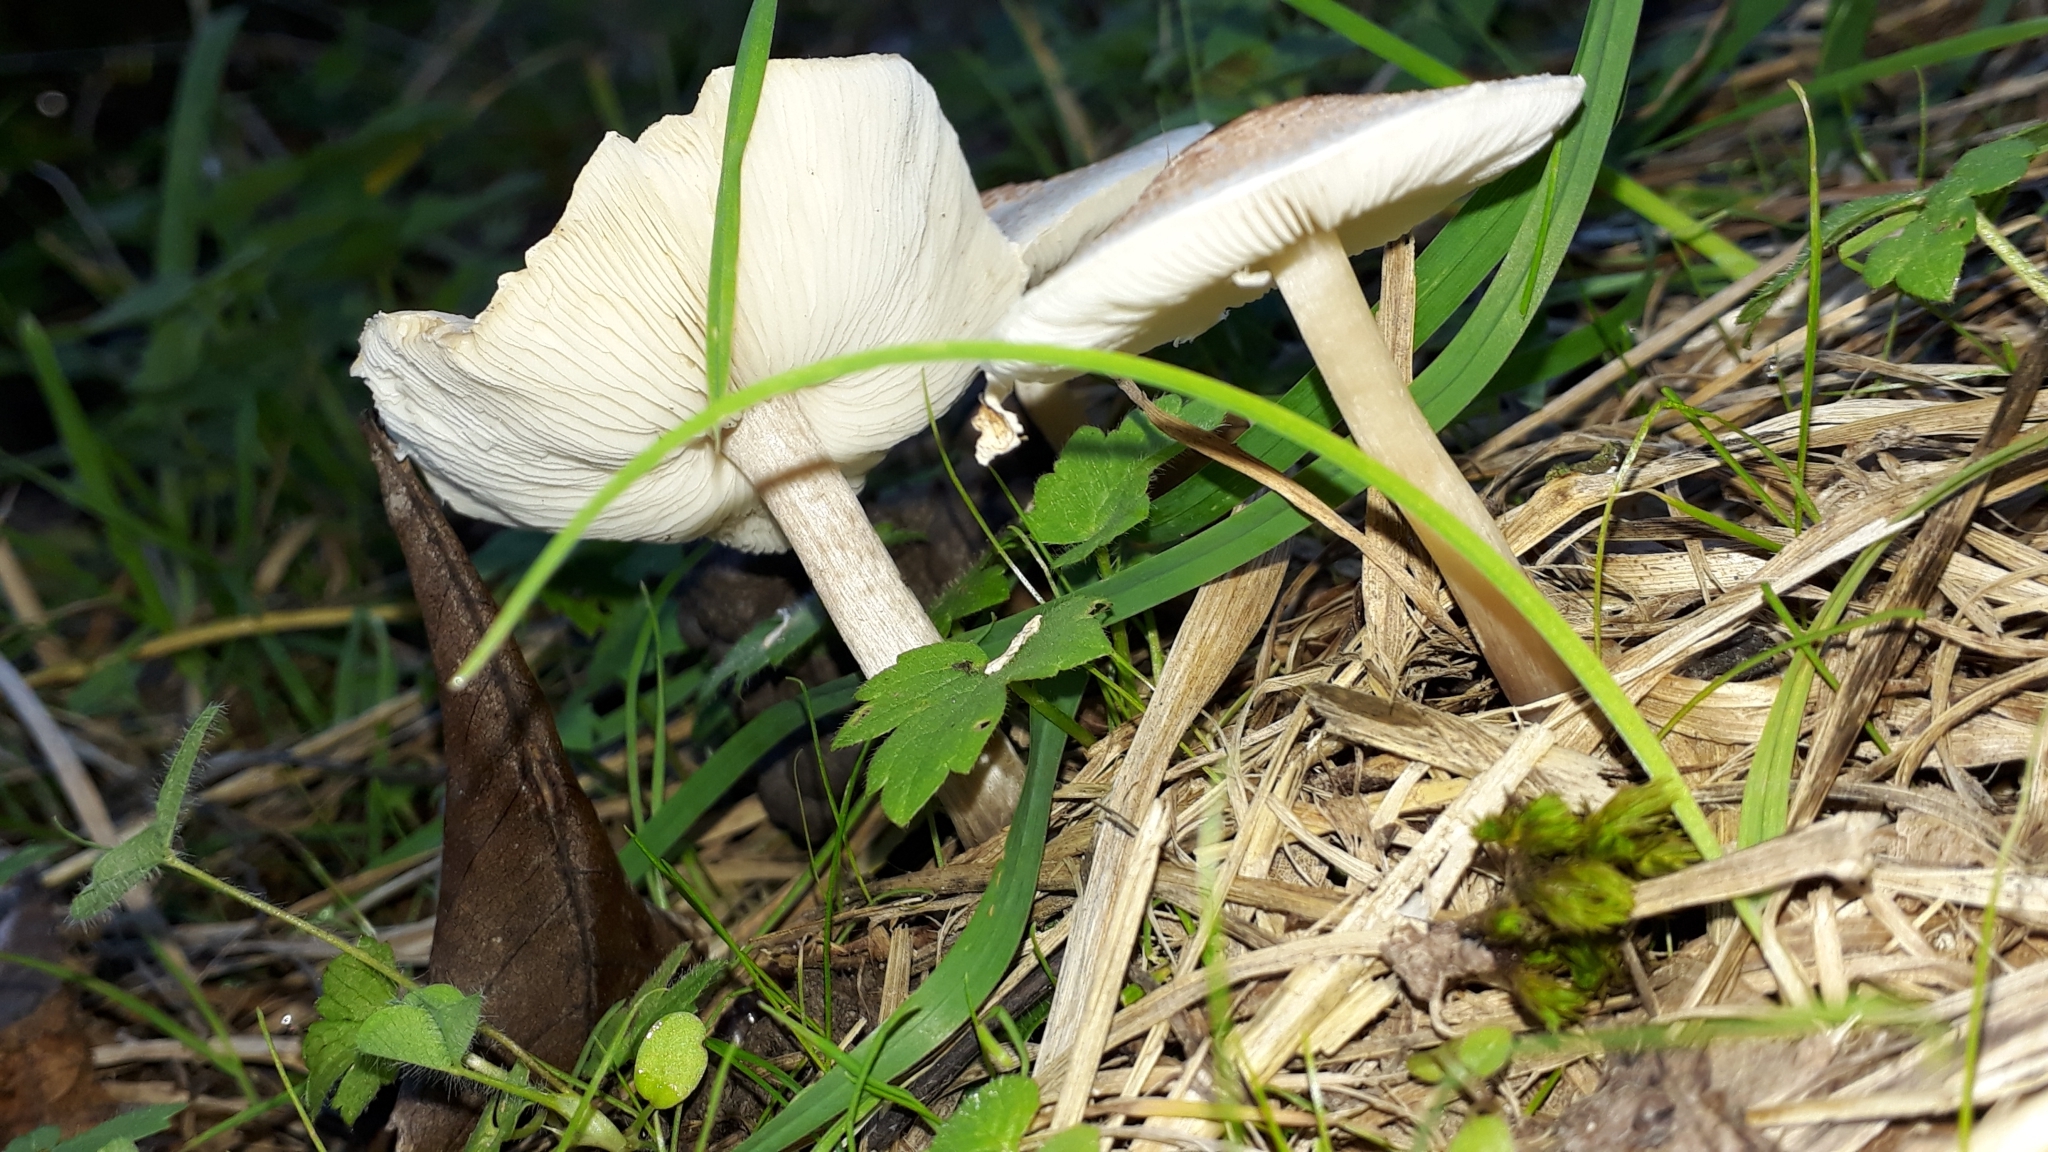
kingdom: Fungi
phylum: Basidiomycota
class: Agaricomycetes
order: Agaricales
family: Agaricaceae
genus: Lepiota
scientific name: Lepiota cristata
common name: Stinking dapperling
